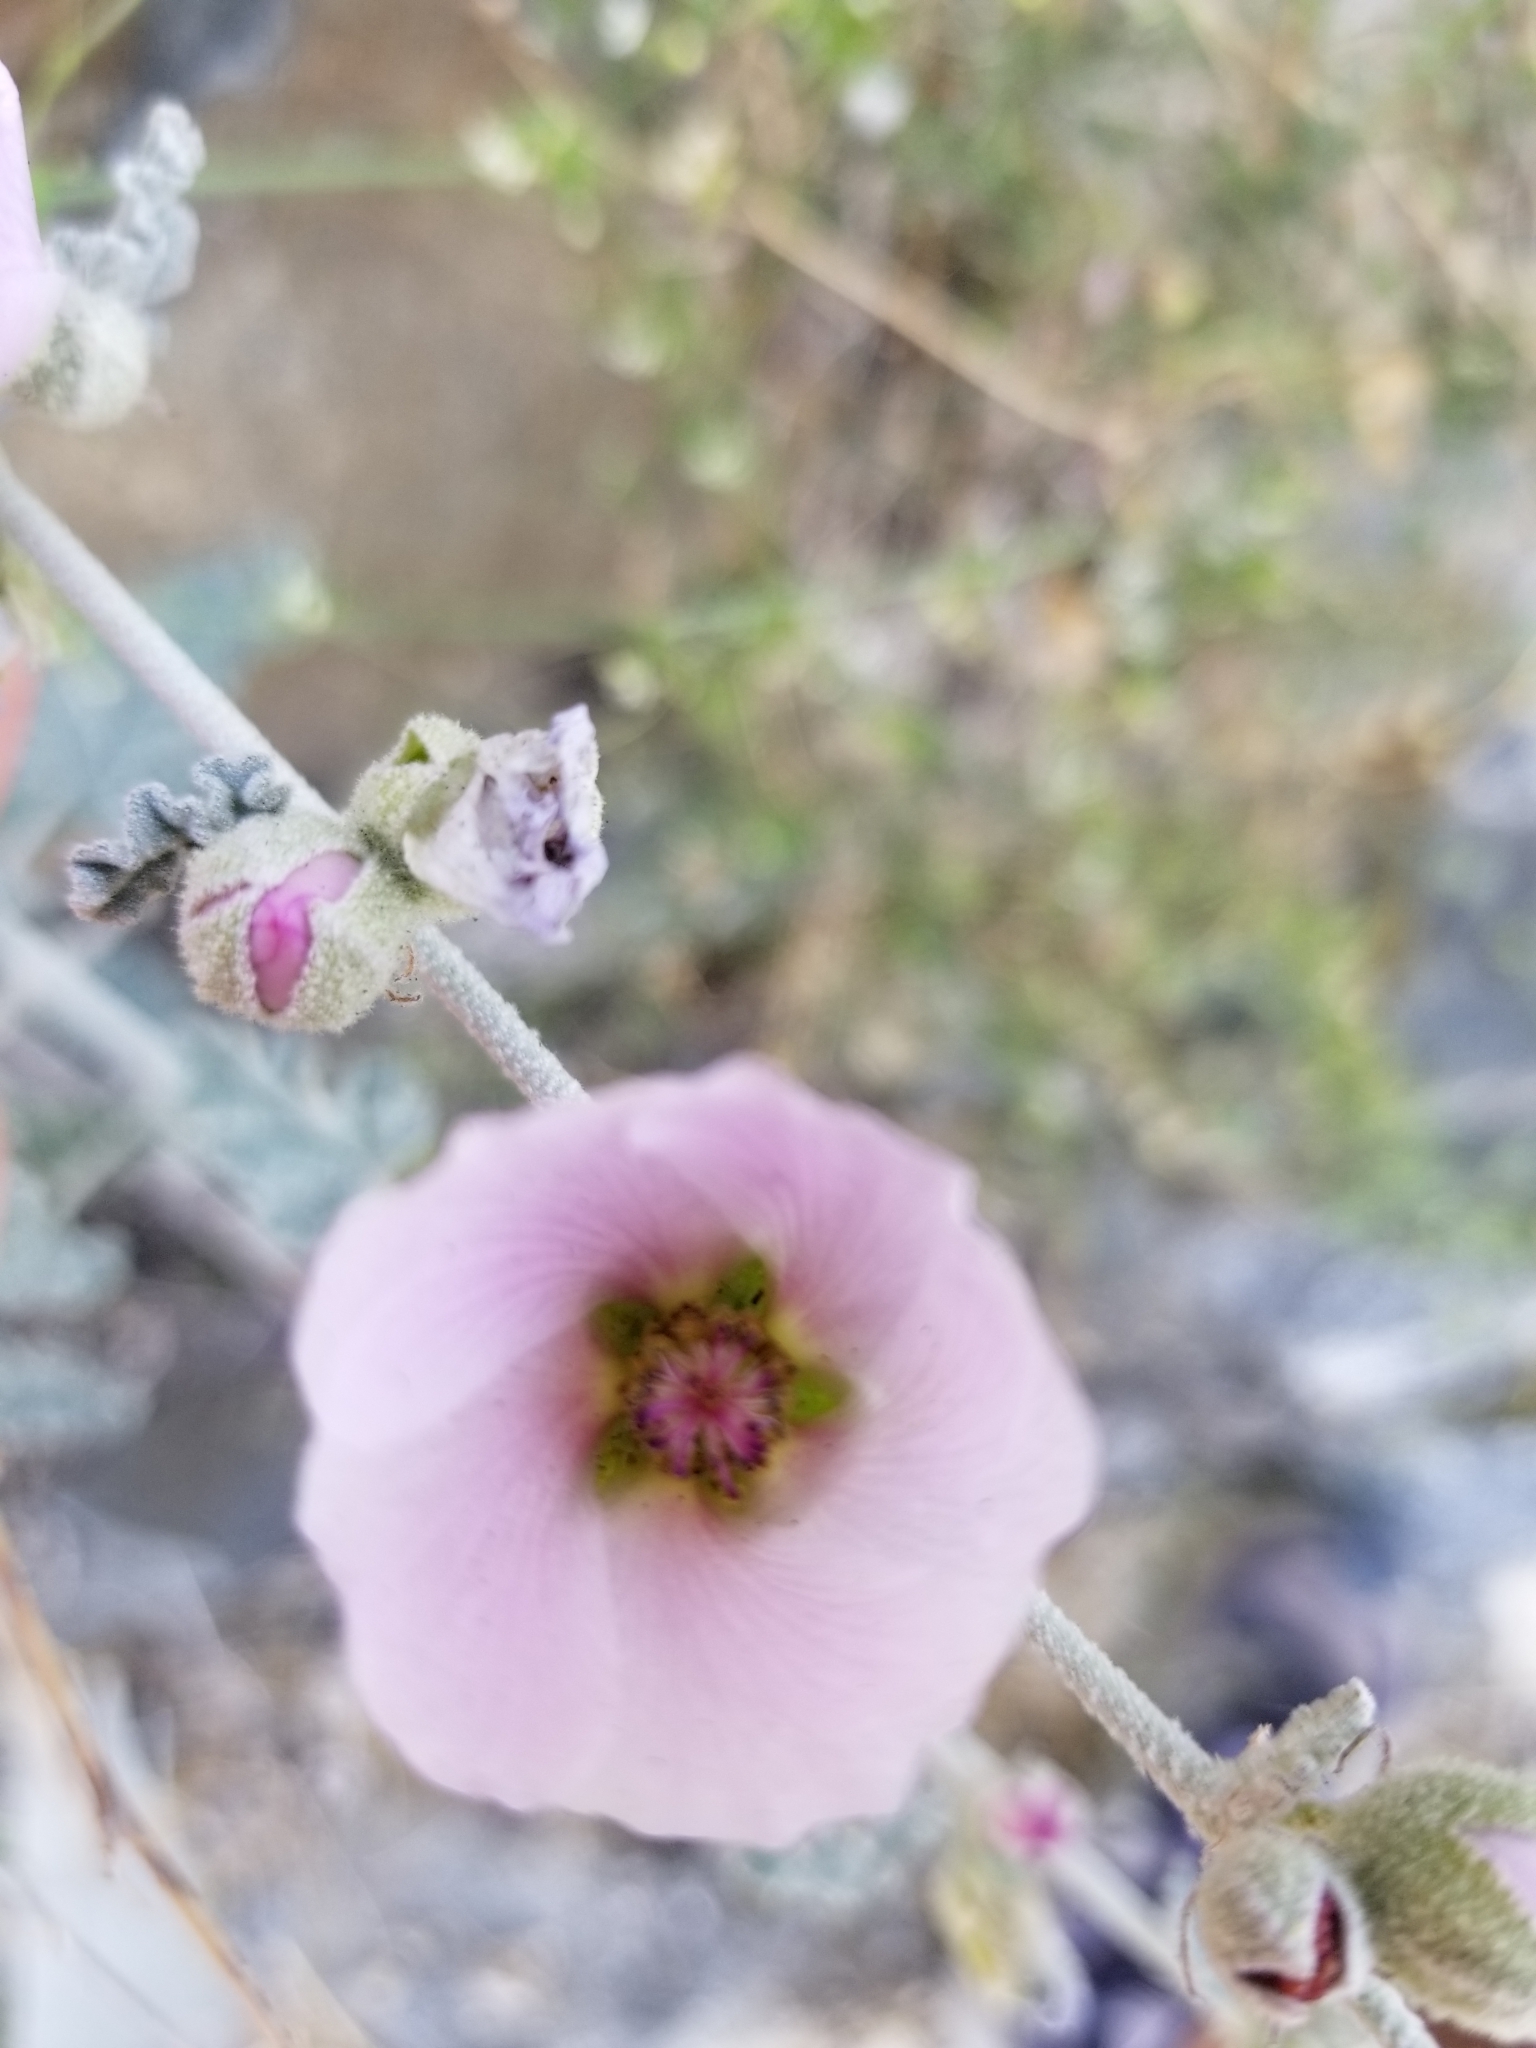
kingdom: Plantae
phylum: Tracheophyta
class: Magnoliopsida
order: Malvales
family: Malvaceae
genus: Sphaeralcea
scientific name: Sphaeralcea ambigua
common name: Apricot globe-mallow
